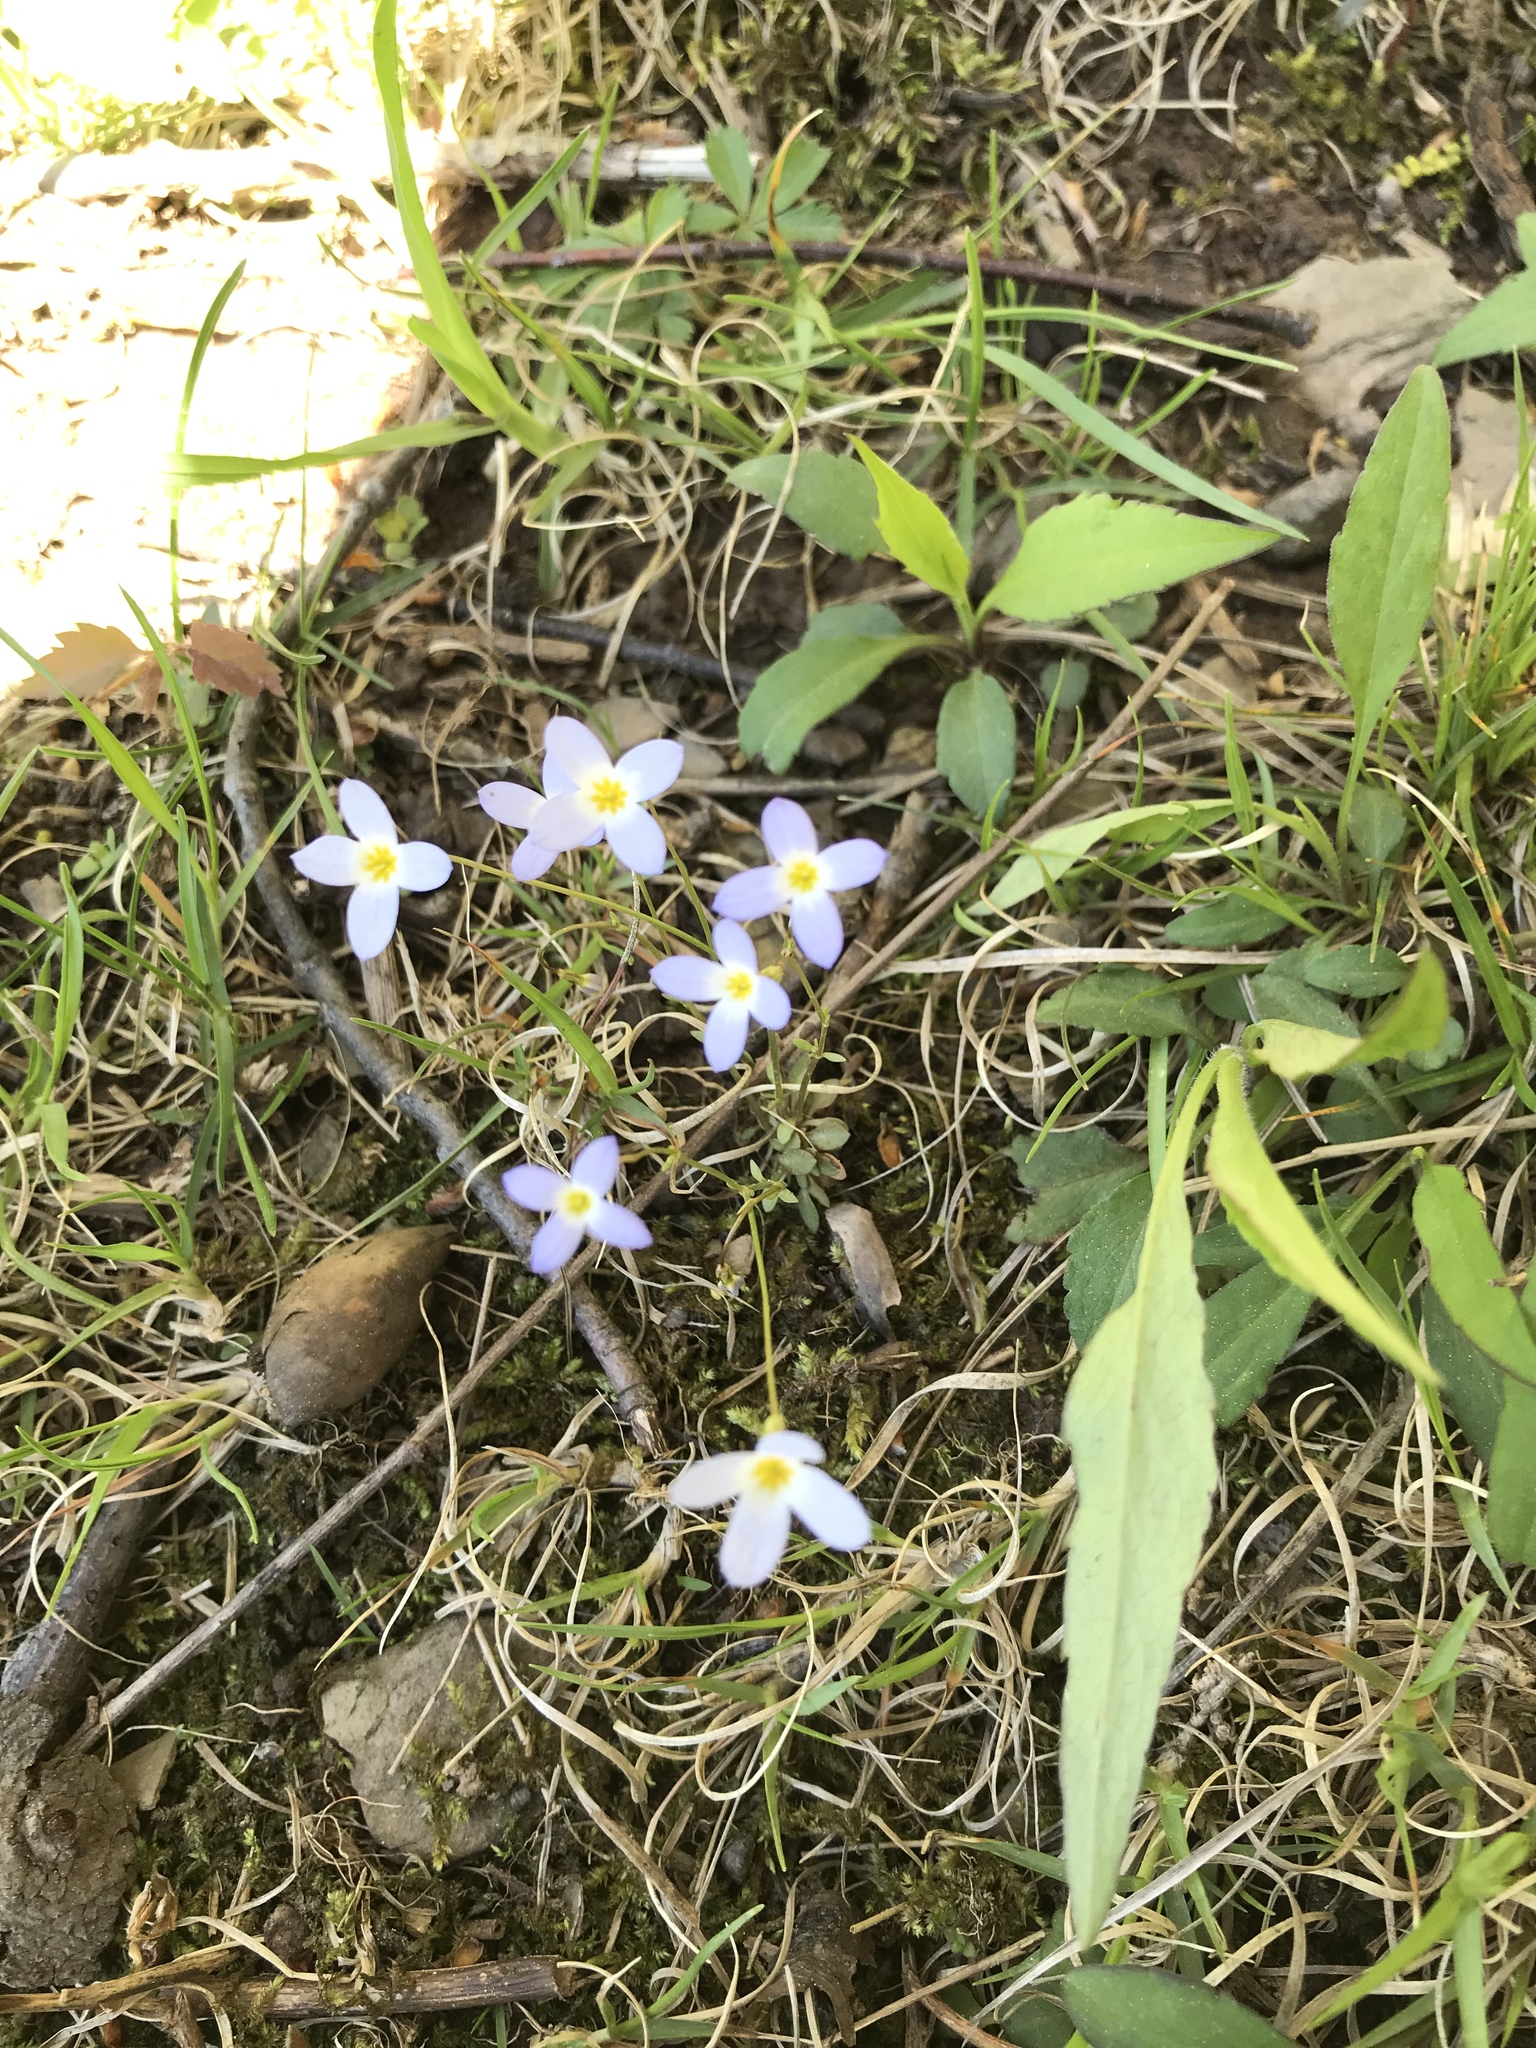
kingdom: Plantae
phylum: Tracheophyta
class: Magnoliopsida
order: Gentianales
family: Rubiaceae
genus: Houstonia
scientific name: Houstonia caerulea
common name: Bluets
